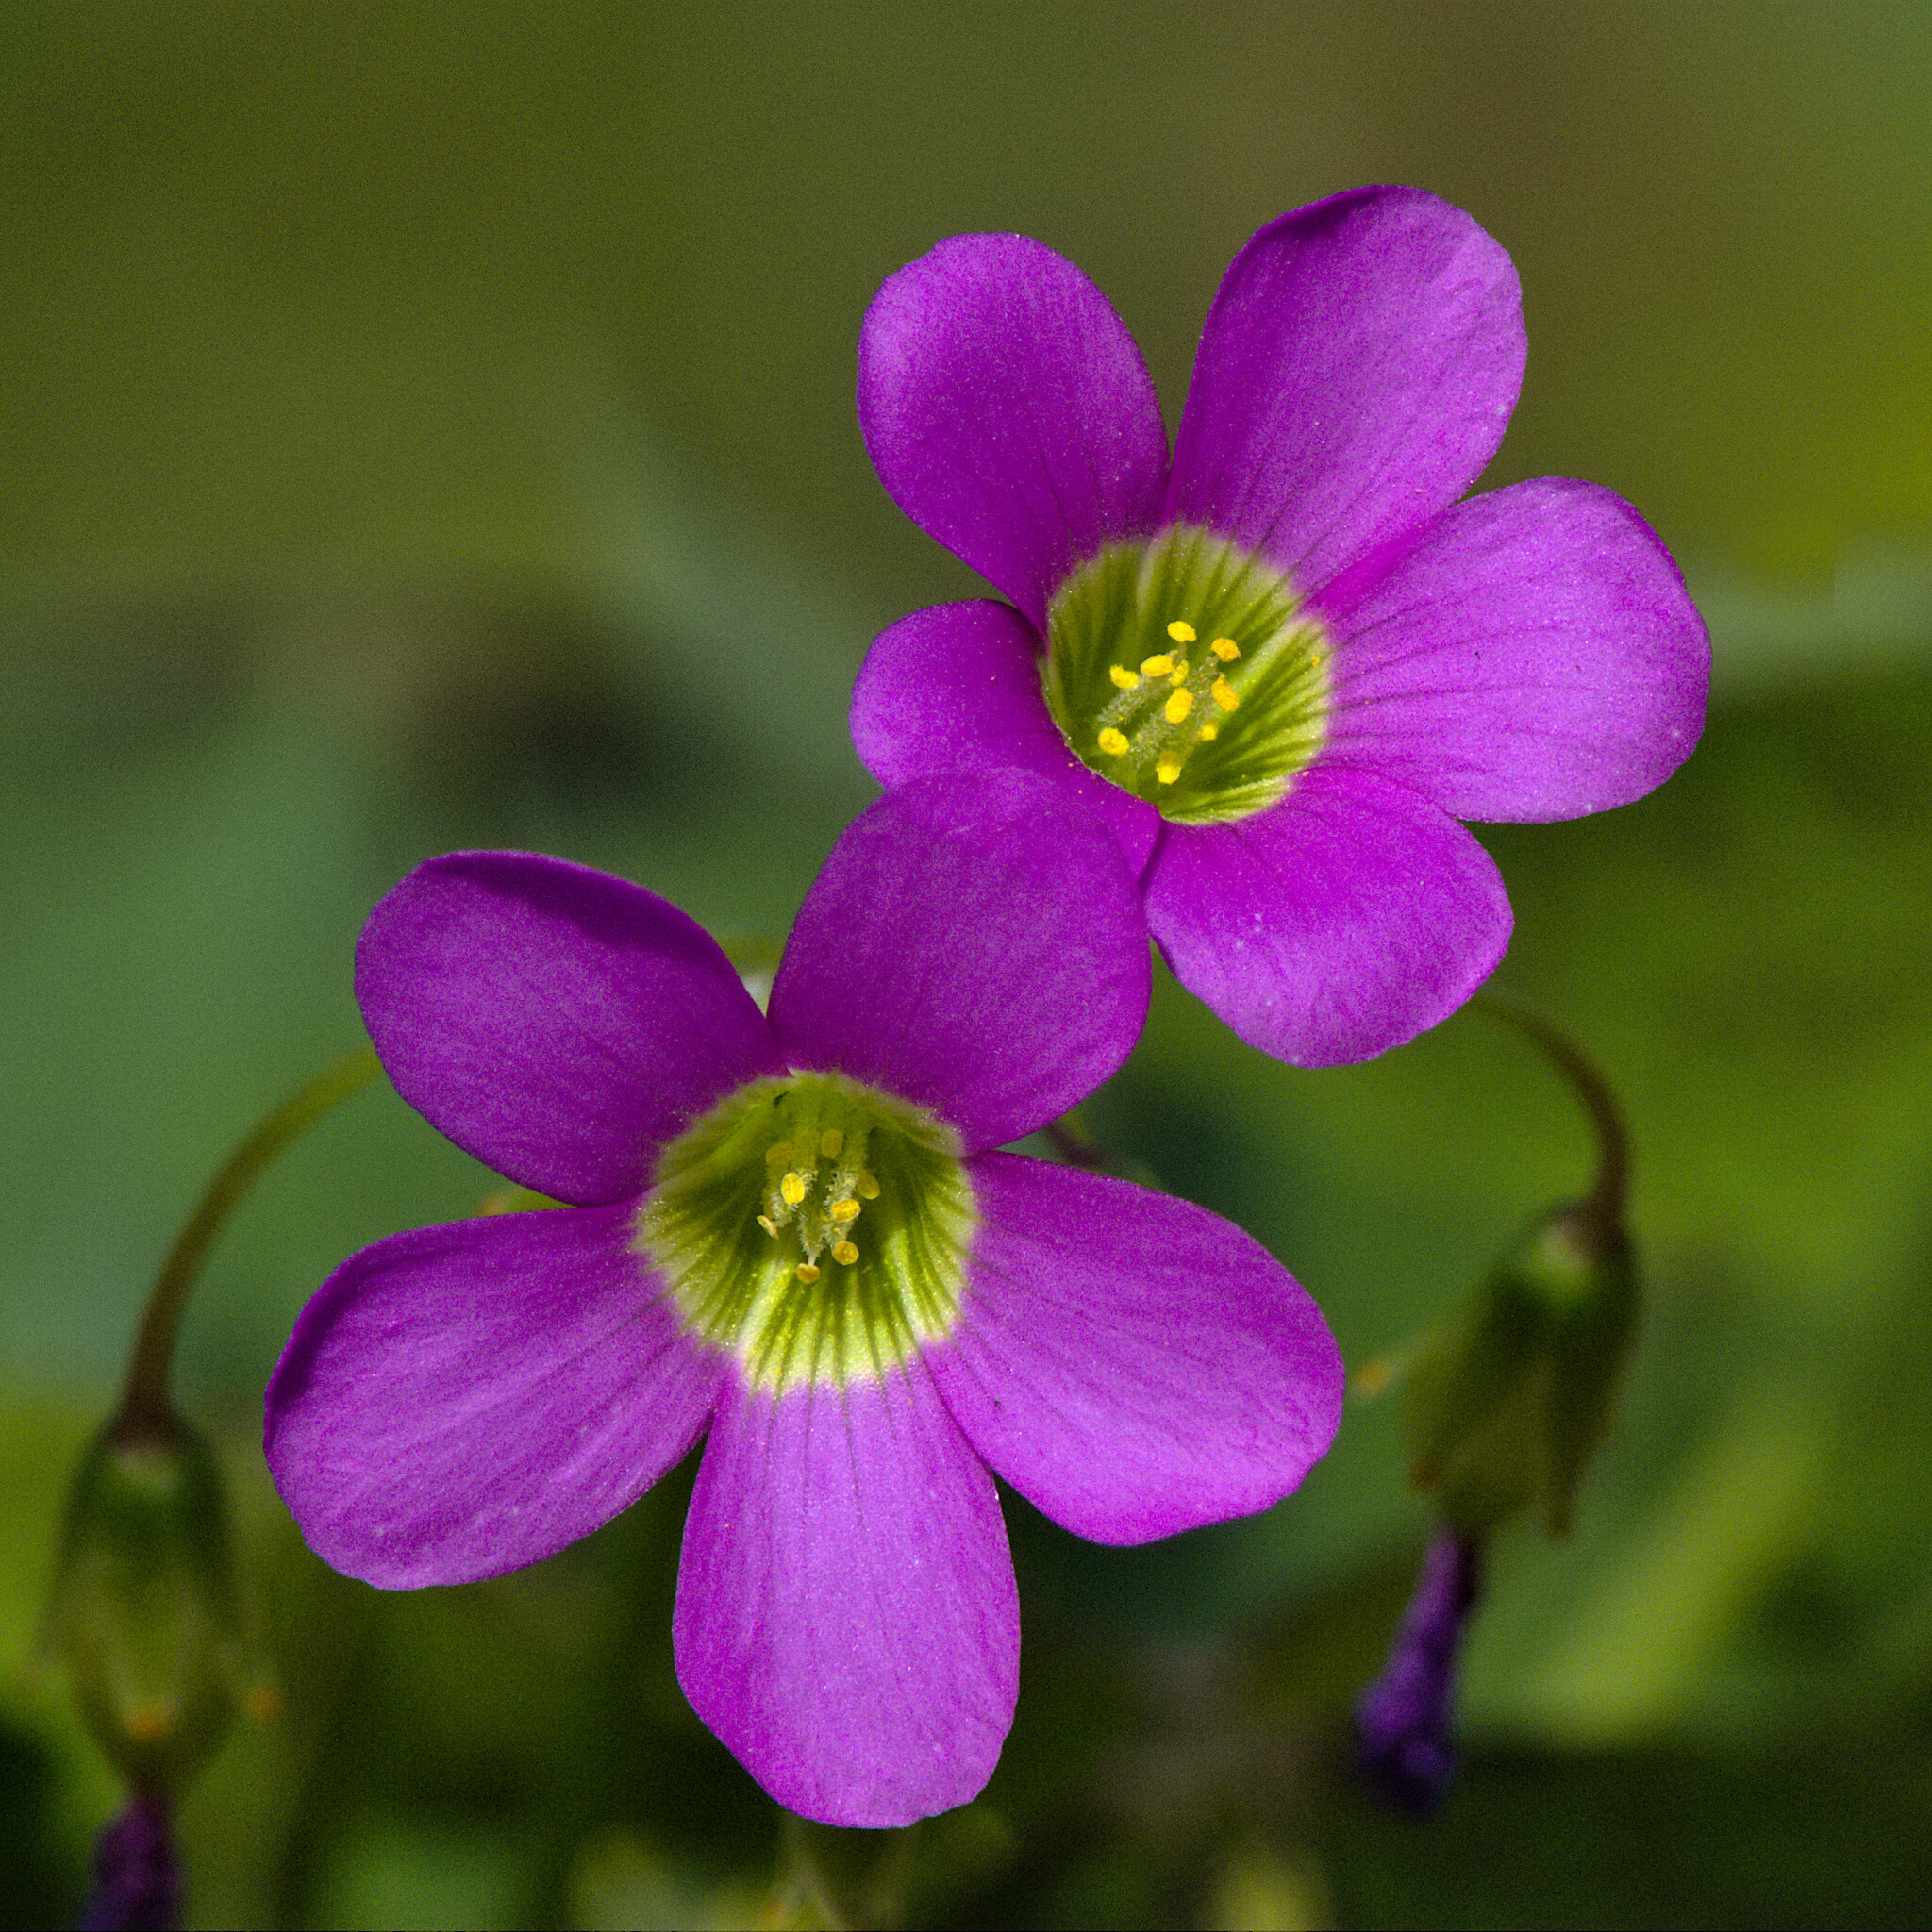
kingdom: Plantae
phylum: Tracheophyta
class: Magnoliopsida
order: Oxalidales
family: Oxalidaceae
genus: Oxalis
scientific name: Oxalis latifolia
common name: Garden pink-sorrel
